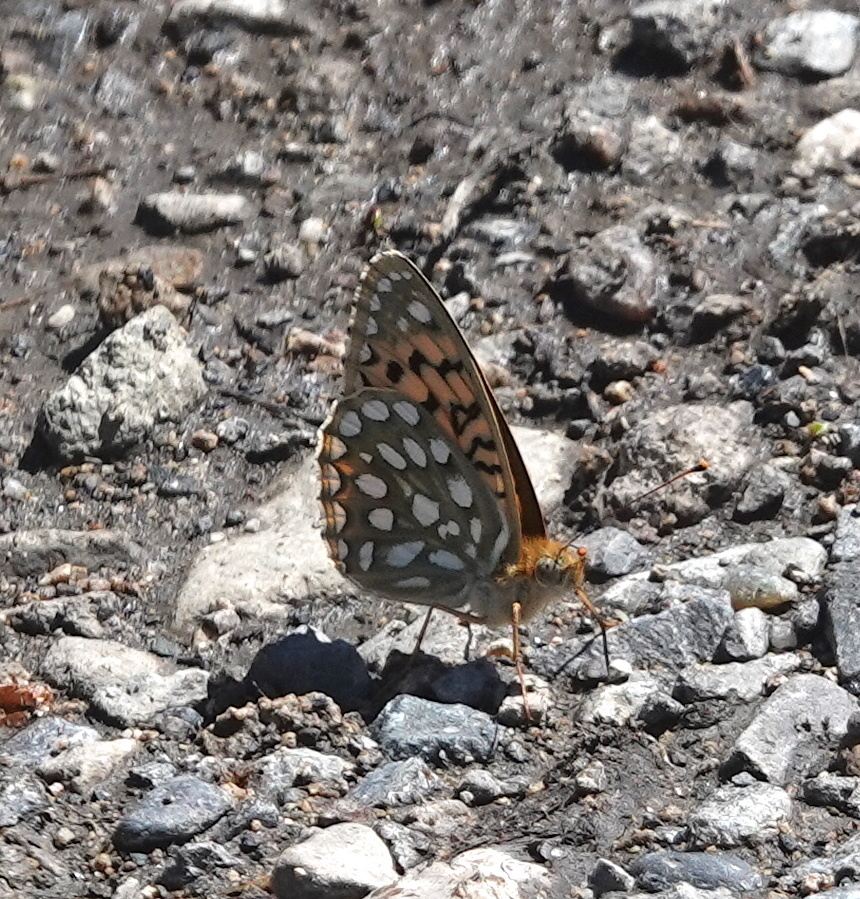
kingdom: Animalia
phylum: Arthropoda
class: Insecta
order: Lepidoptera
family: Nymphalidae
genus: Speyeria
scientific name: Speyeria callippe
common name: Callippe fritillary
